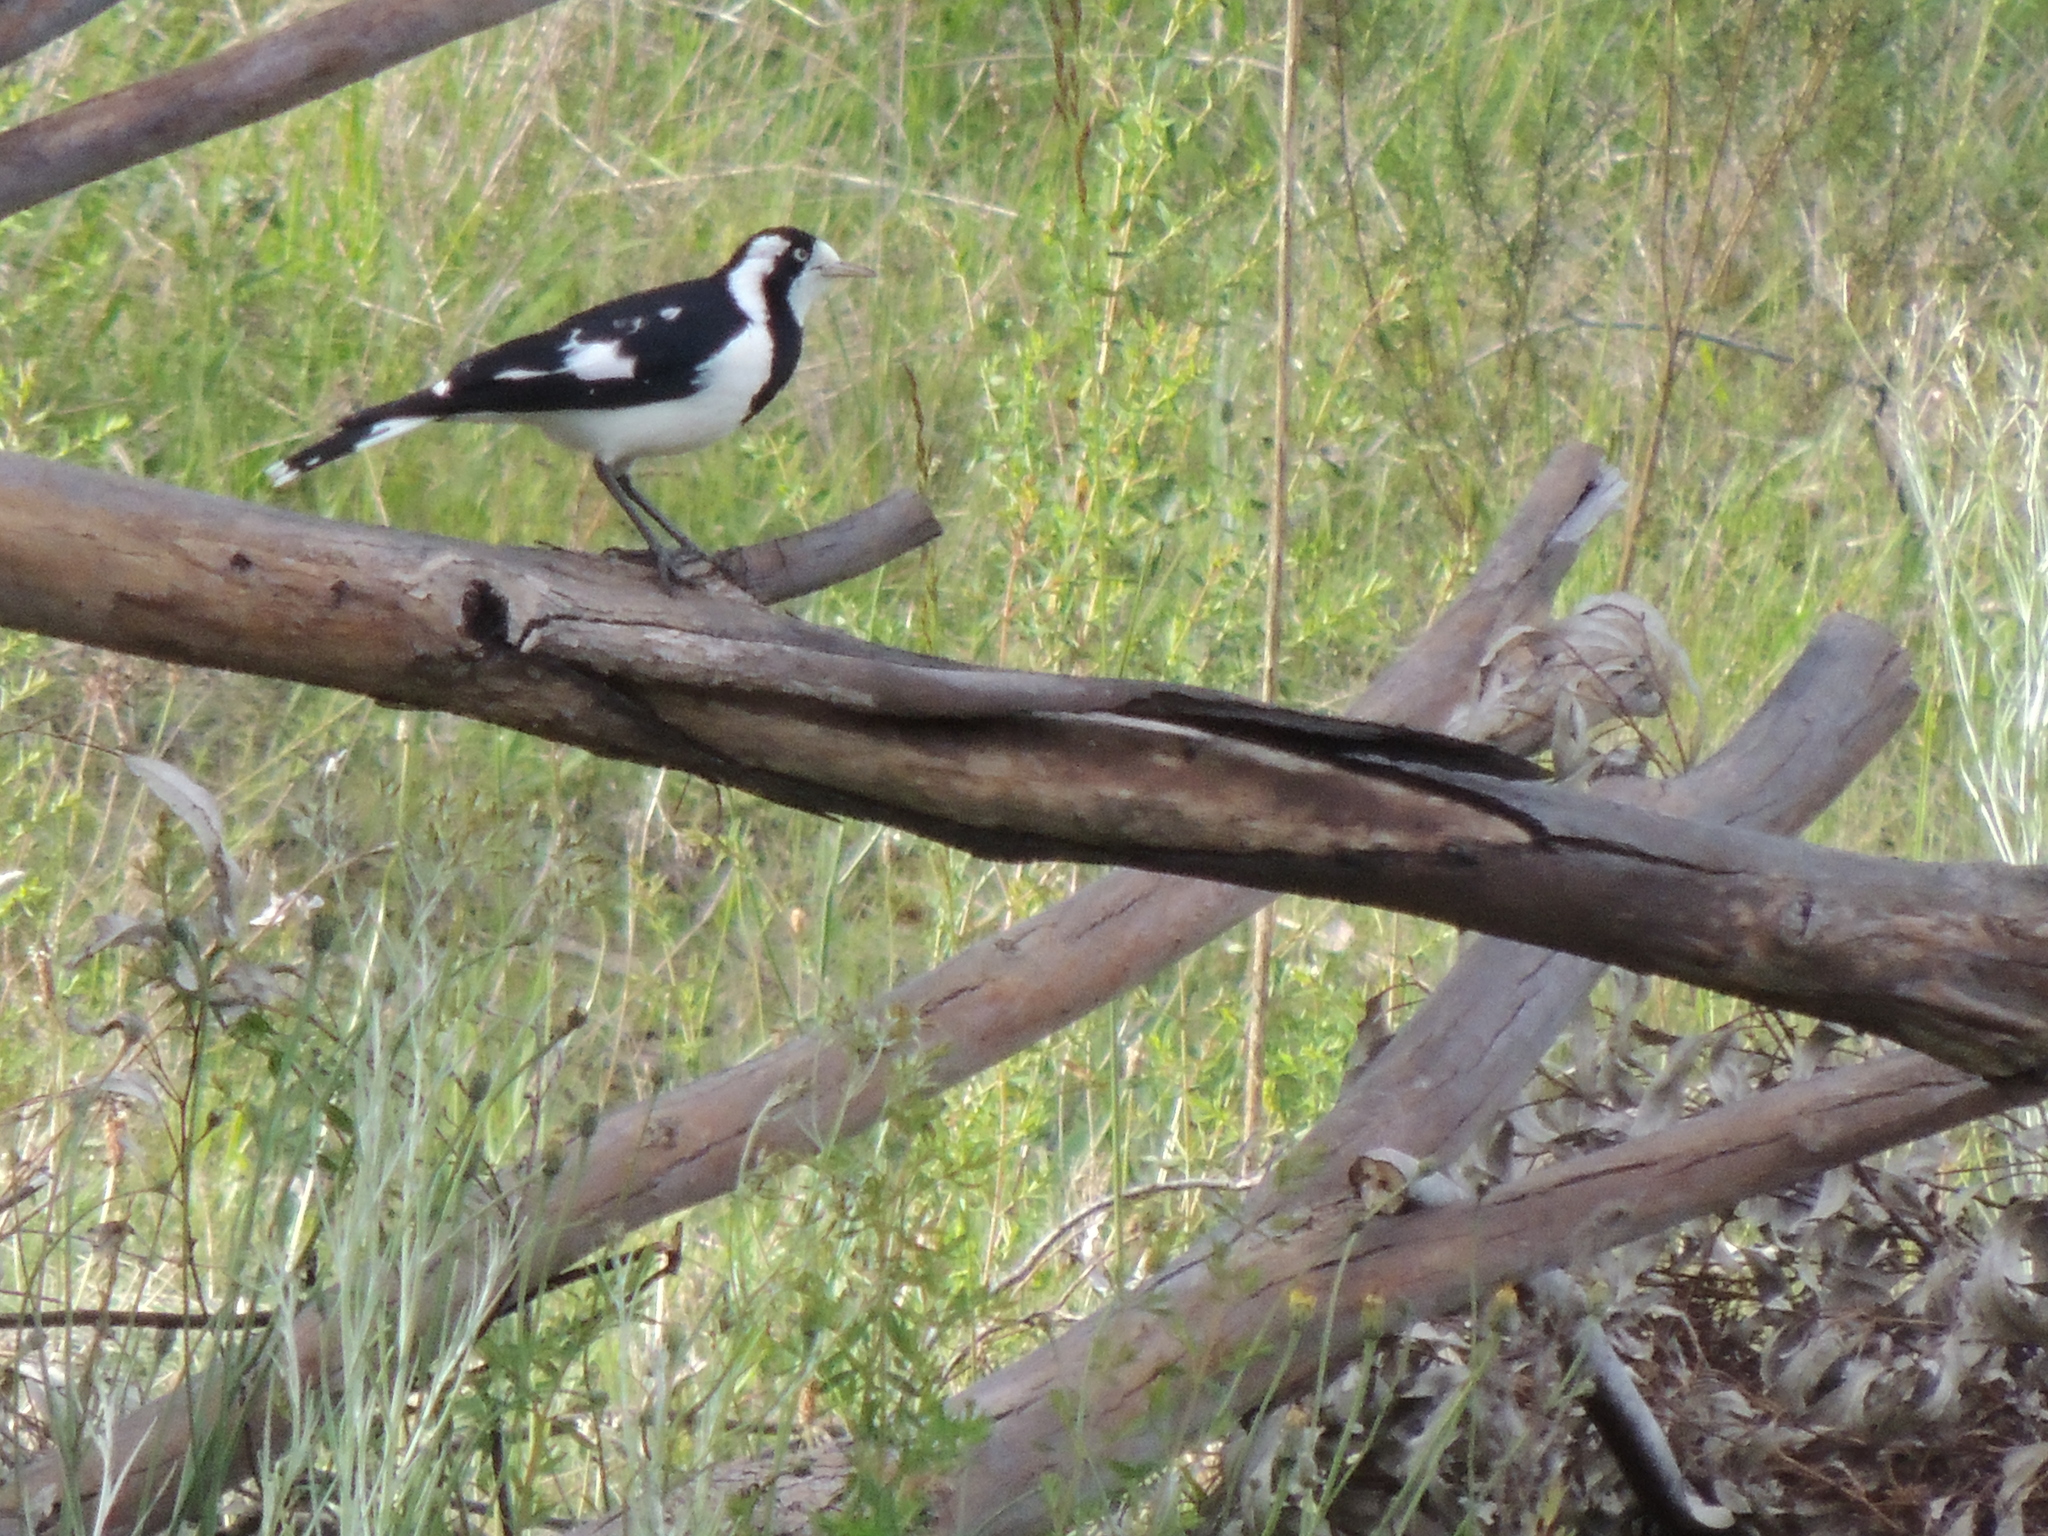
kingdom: Animalia
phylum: Chordata
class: Aves
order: Passeriformes
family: Monarchidae
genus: Grallina
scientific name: Grallina cyanoleuca
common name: Magpie-lark
